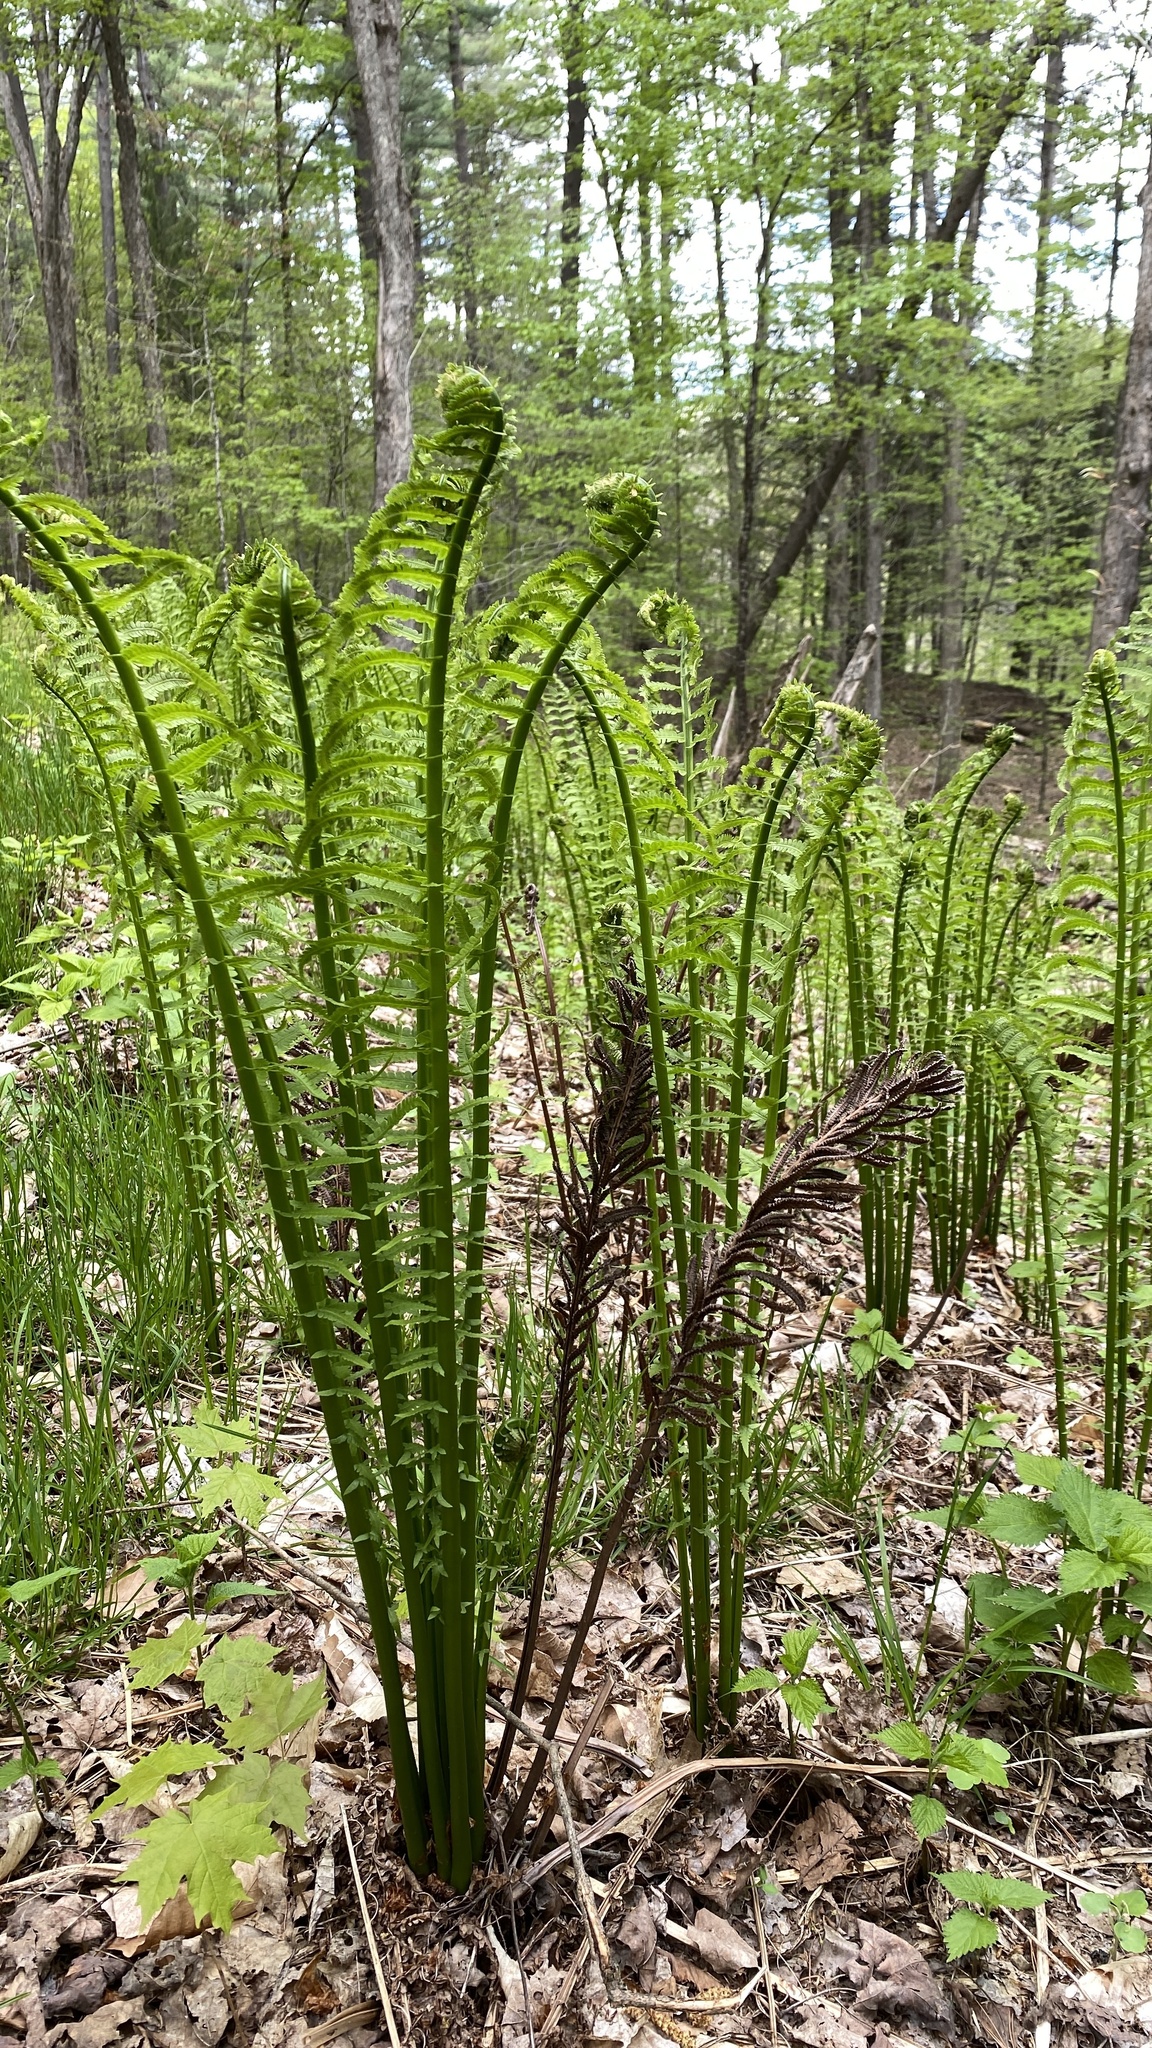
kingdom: Plantae
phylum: Tracheophyta
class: Polypodiopsida
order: Polypodiales
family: Onocleaceae
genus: Matteuccia
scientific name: Matteuccia struthiopteris
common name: Ostrich fern
